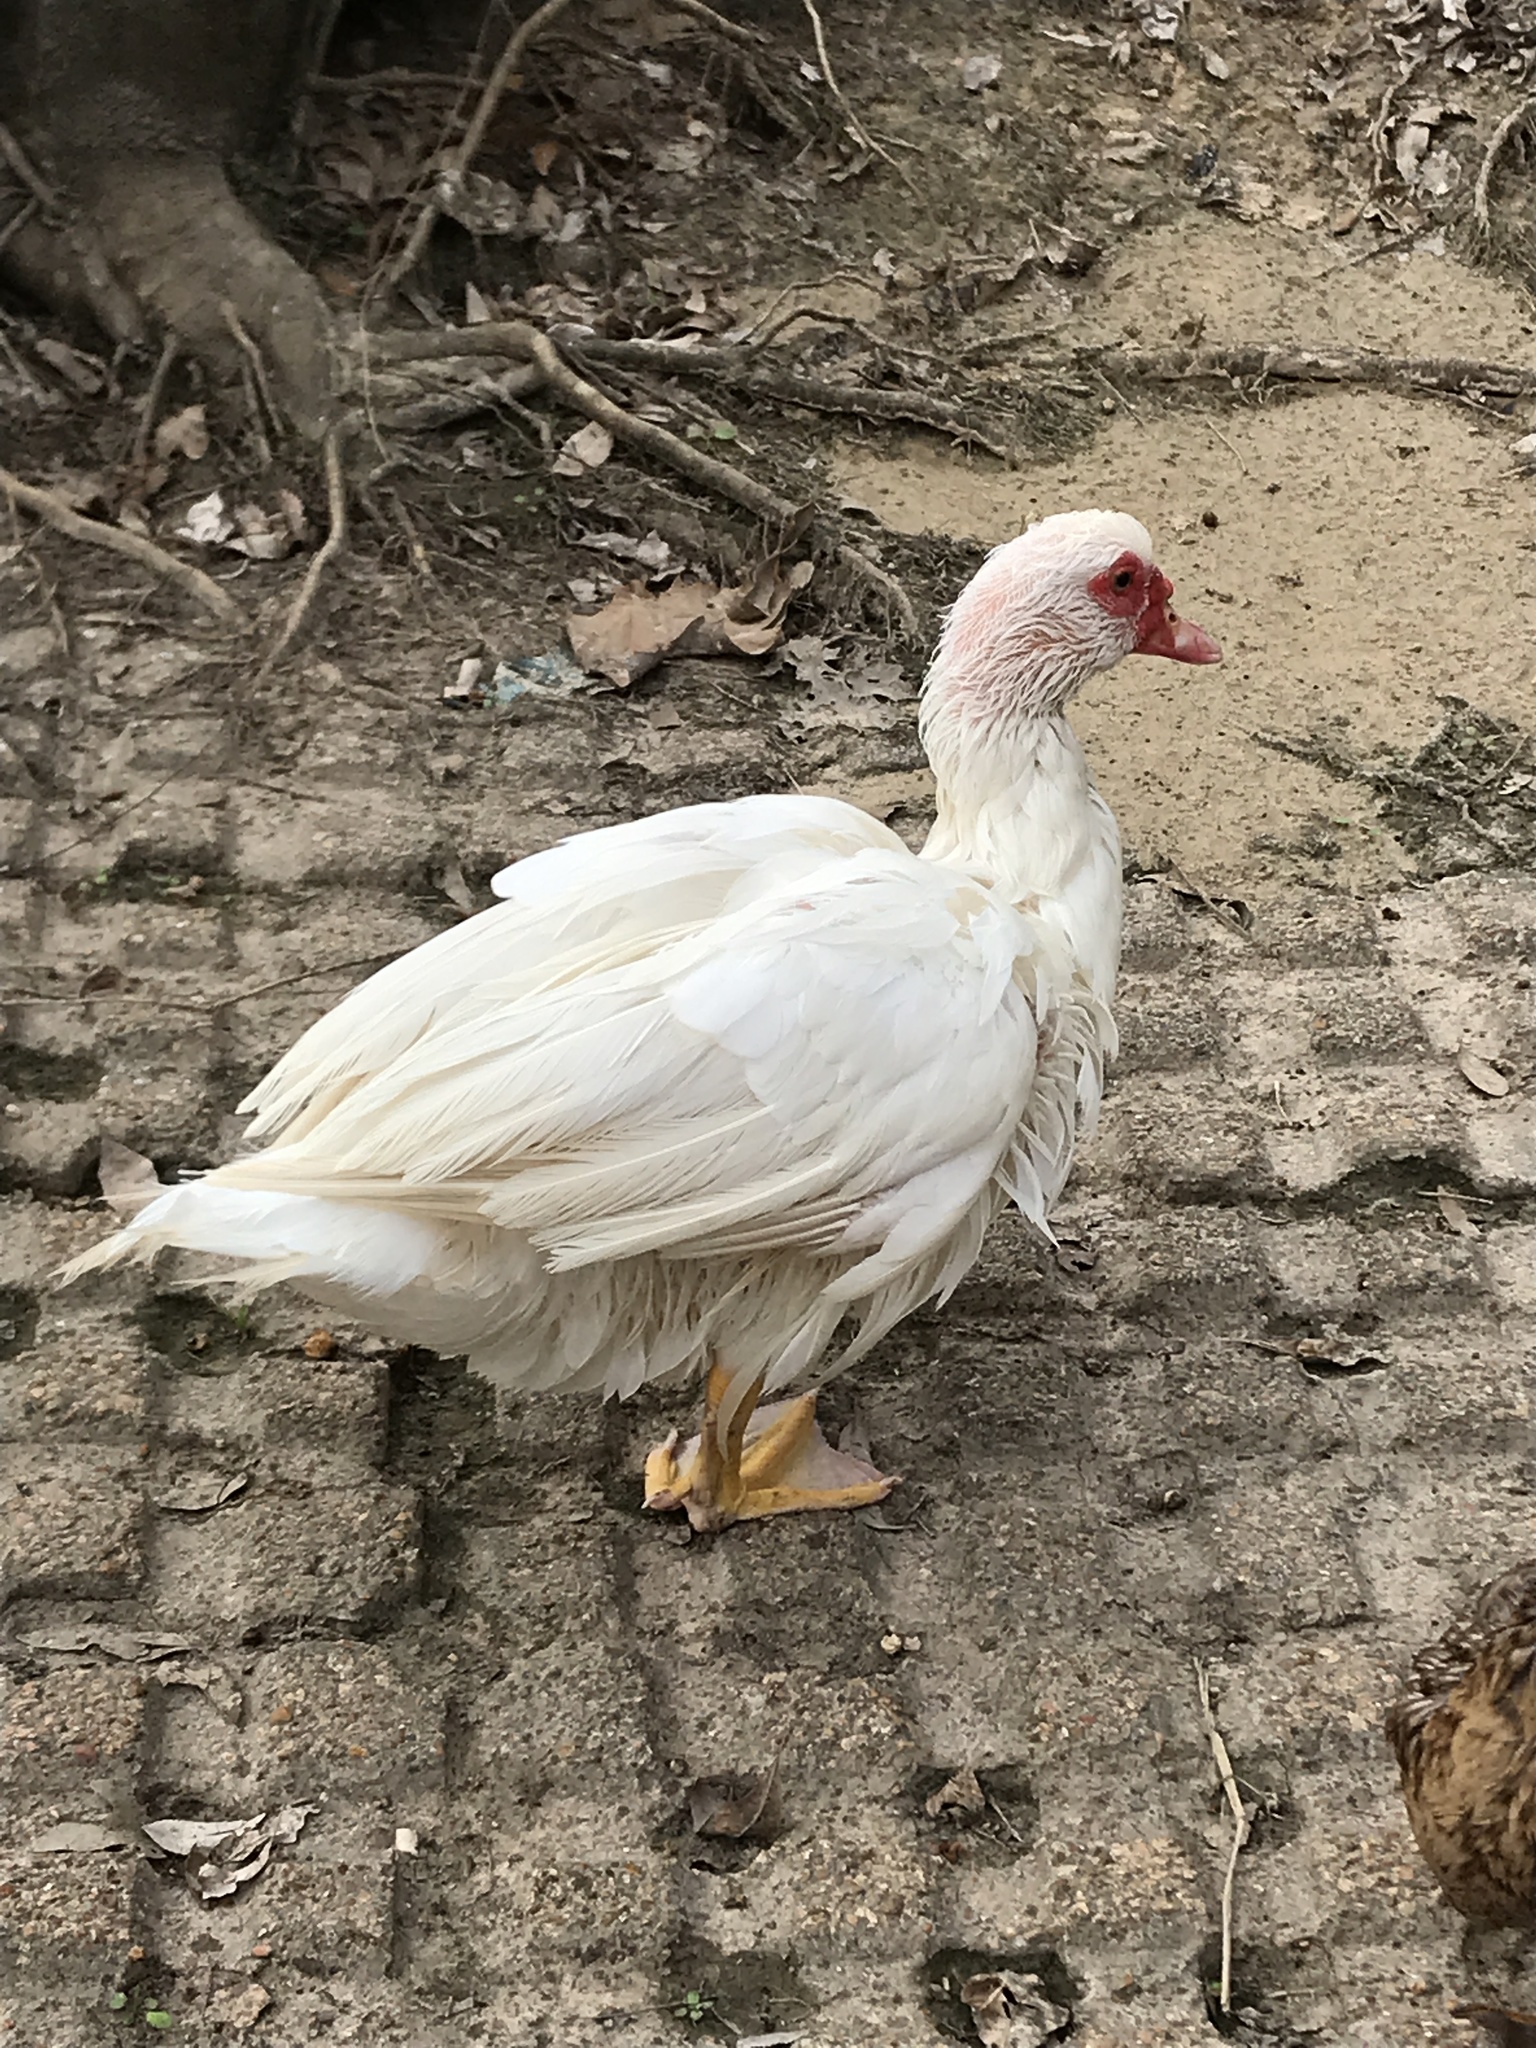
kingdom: Animalia
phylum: Chordata
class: Aves
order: Anseriformes
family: Anatidae
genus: Cairina
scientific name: Cairina moschata
